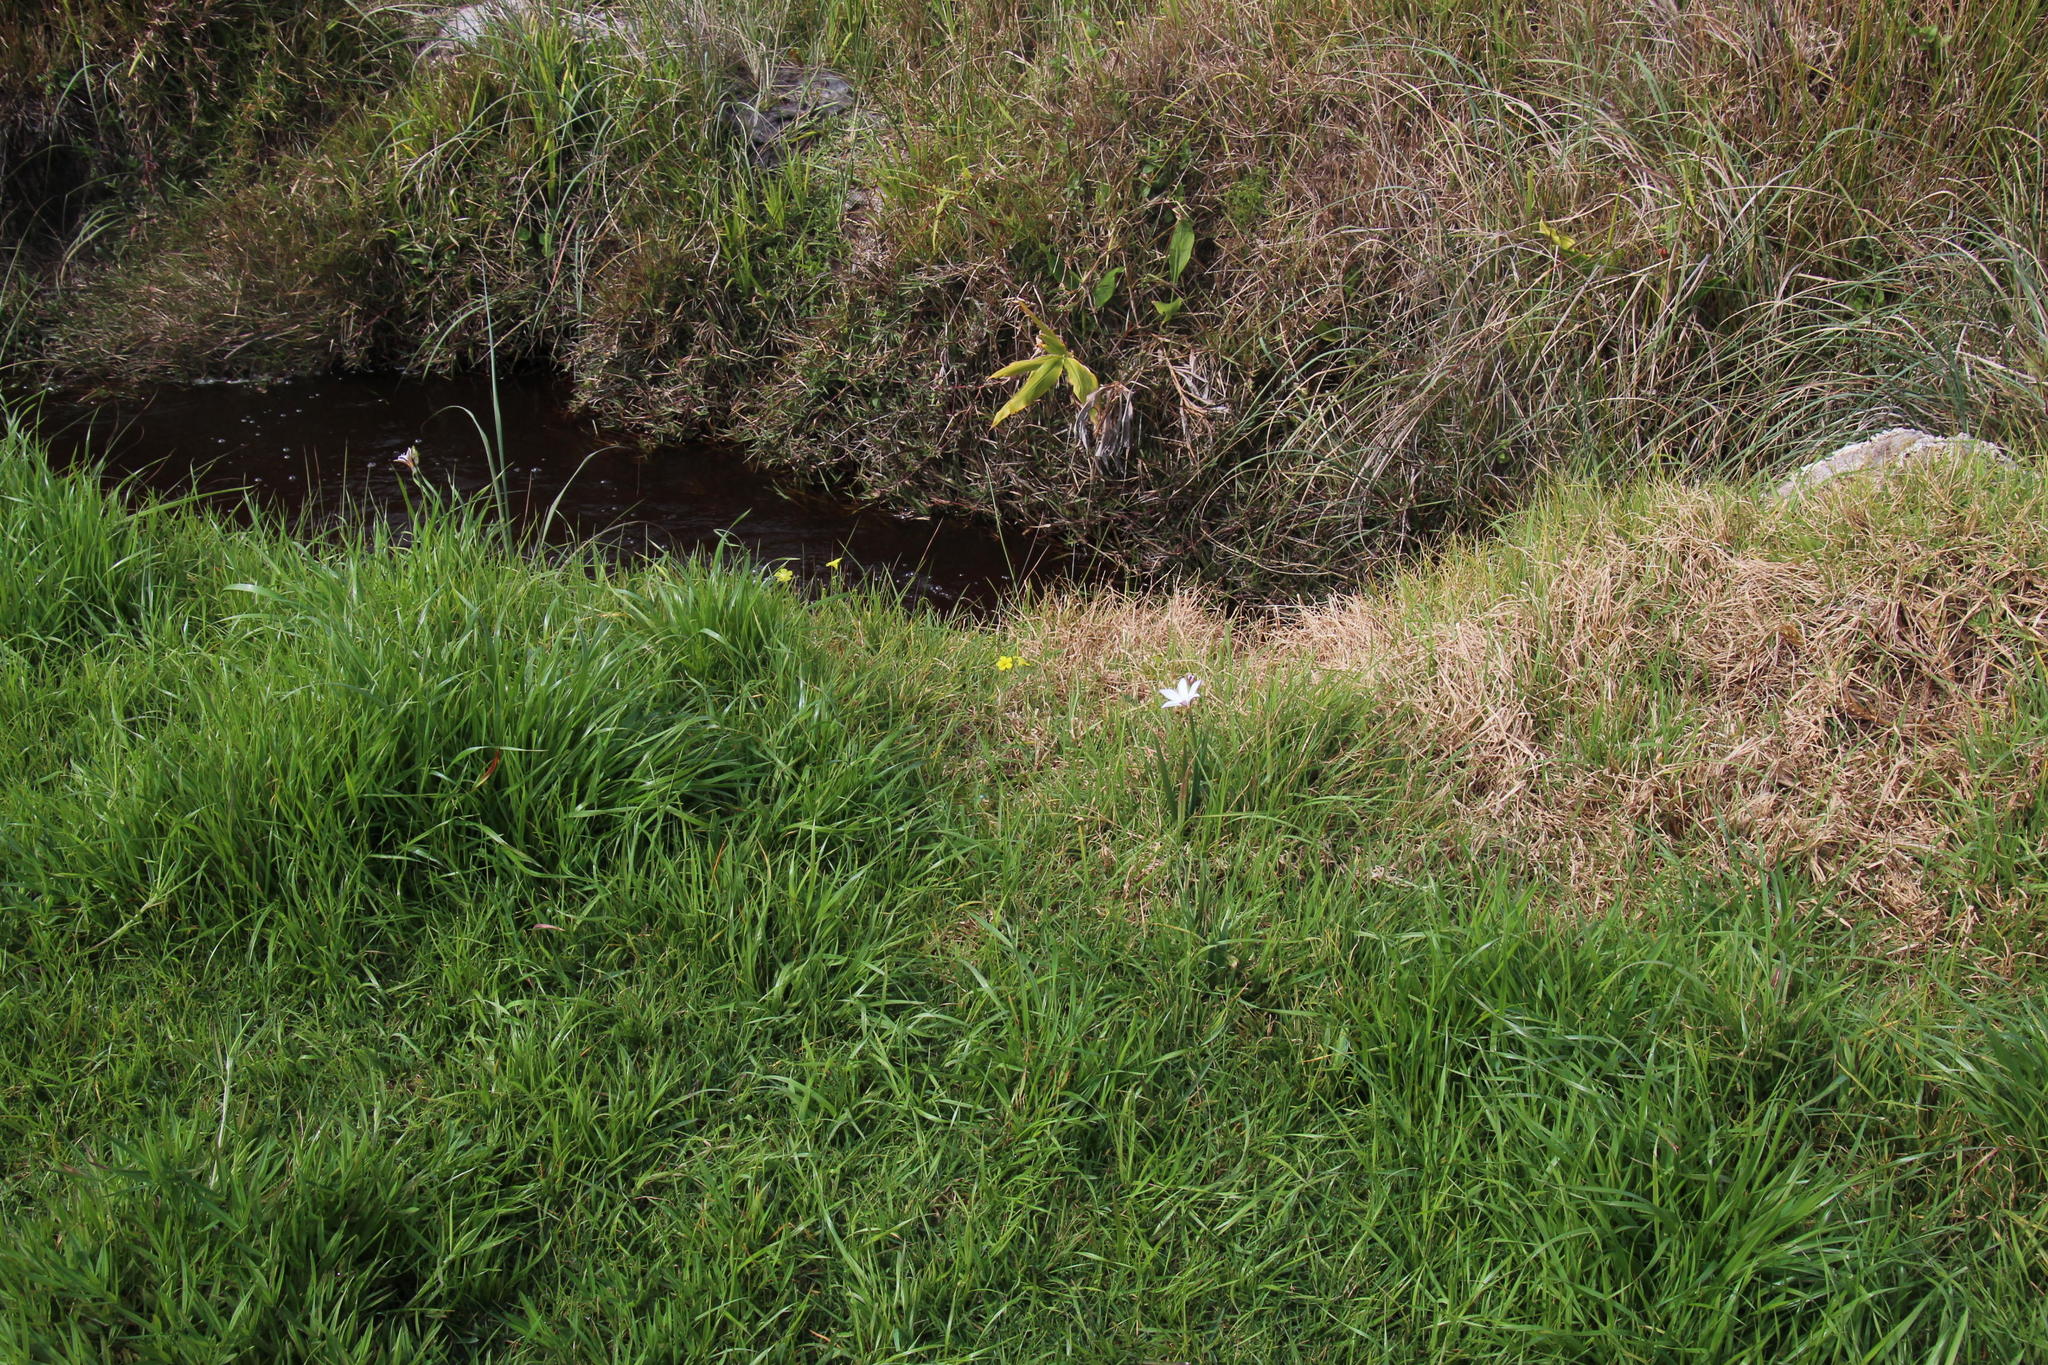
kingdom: Plantae
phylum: Tracheophyta
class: Liliopsida
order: Asparagales
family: Hypoxidaceae
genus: Pauridia
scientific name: Pauridia capensis
